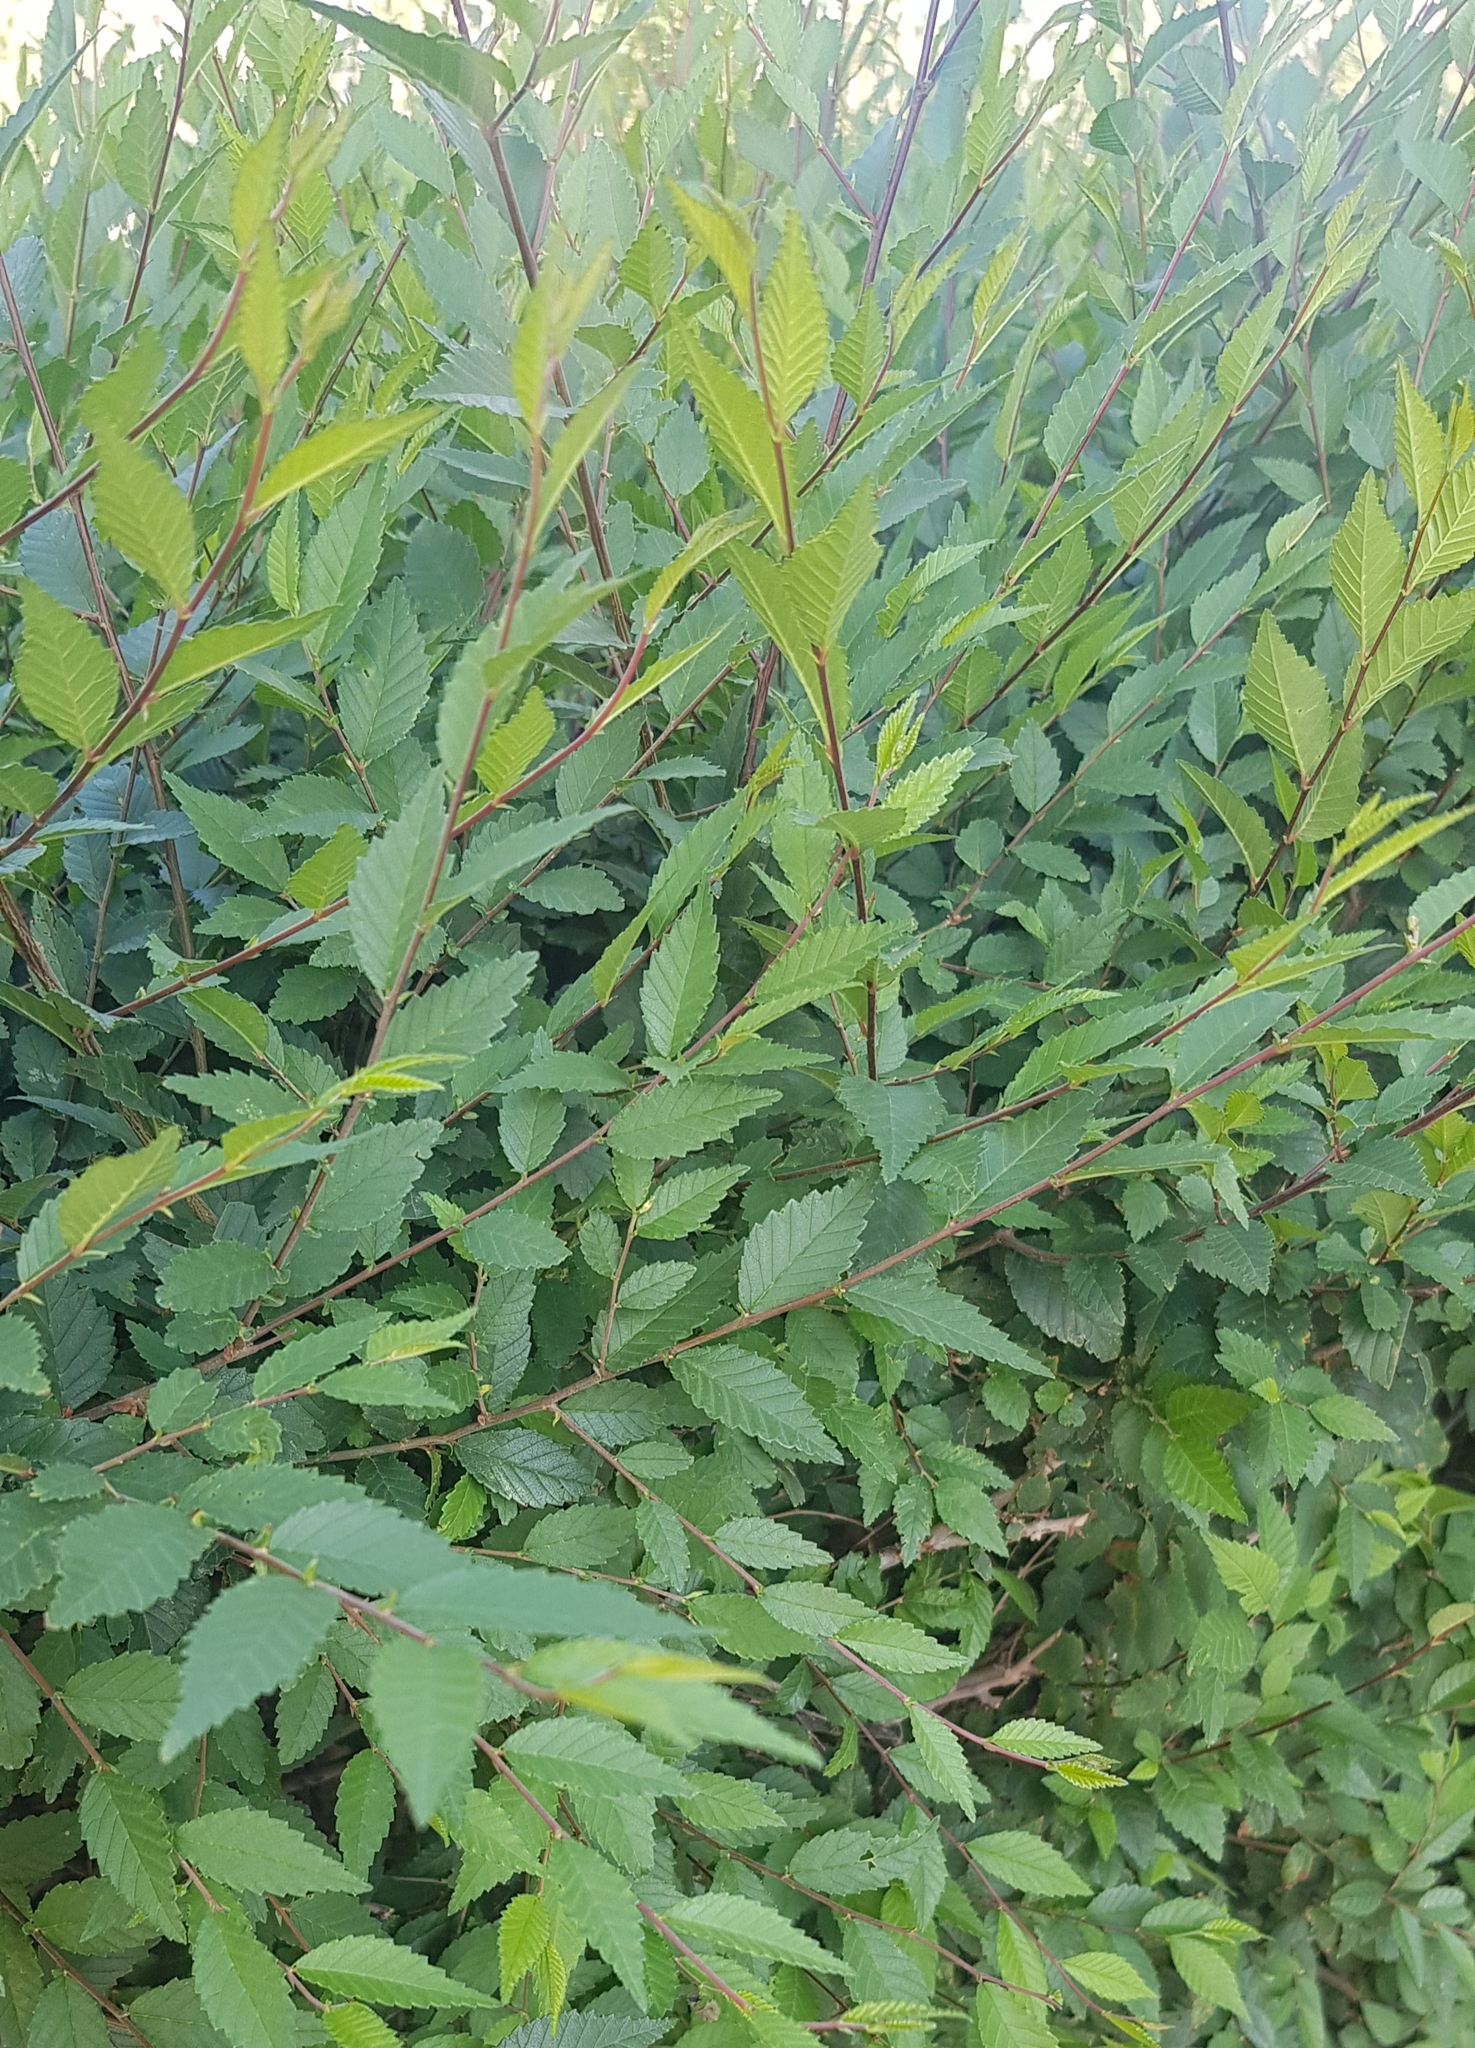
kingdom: Plantae
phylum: Tracheophyta
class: Magnoliopsida
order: Rosales
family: Ulmaceae
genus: Ulmus
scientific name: Ulmus pumila
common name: Siberian elm
